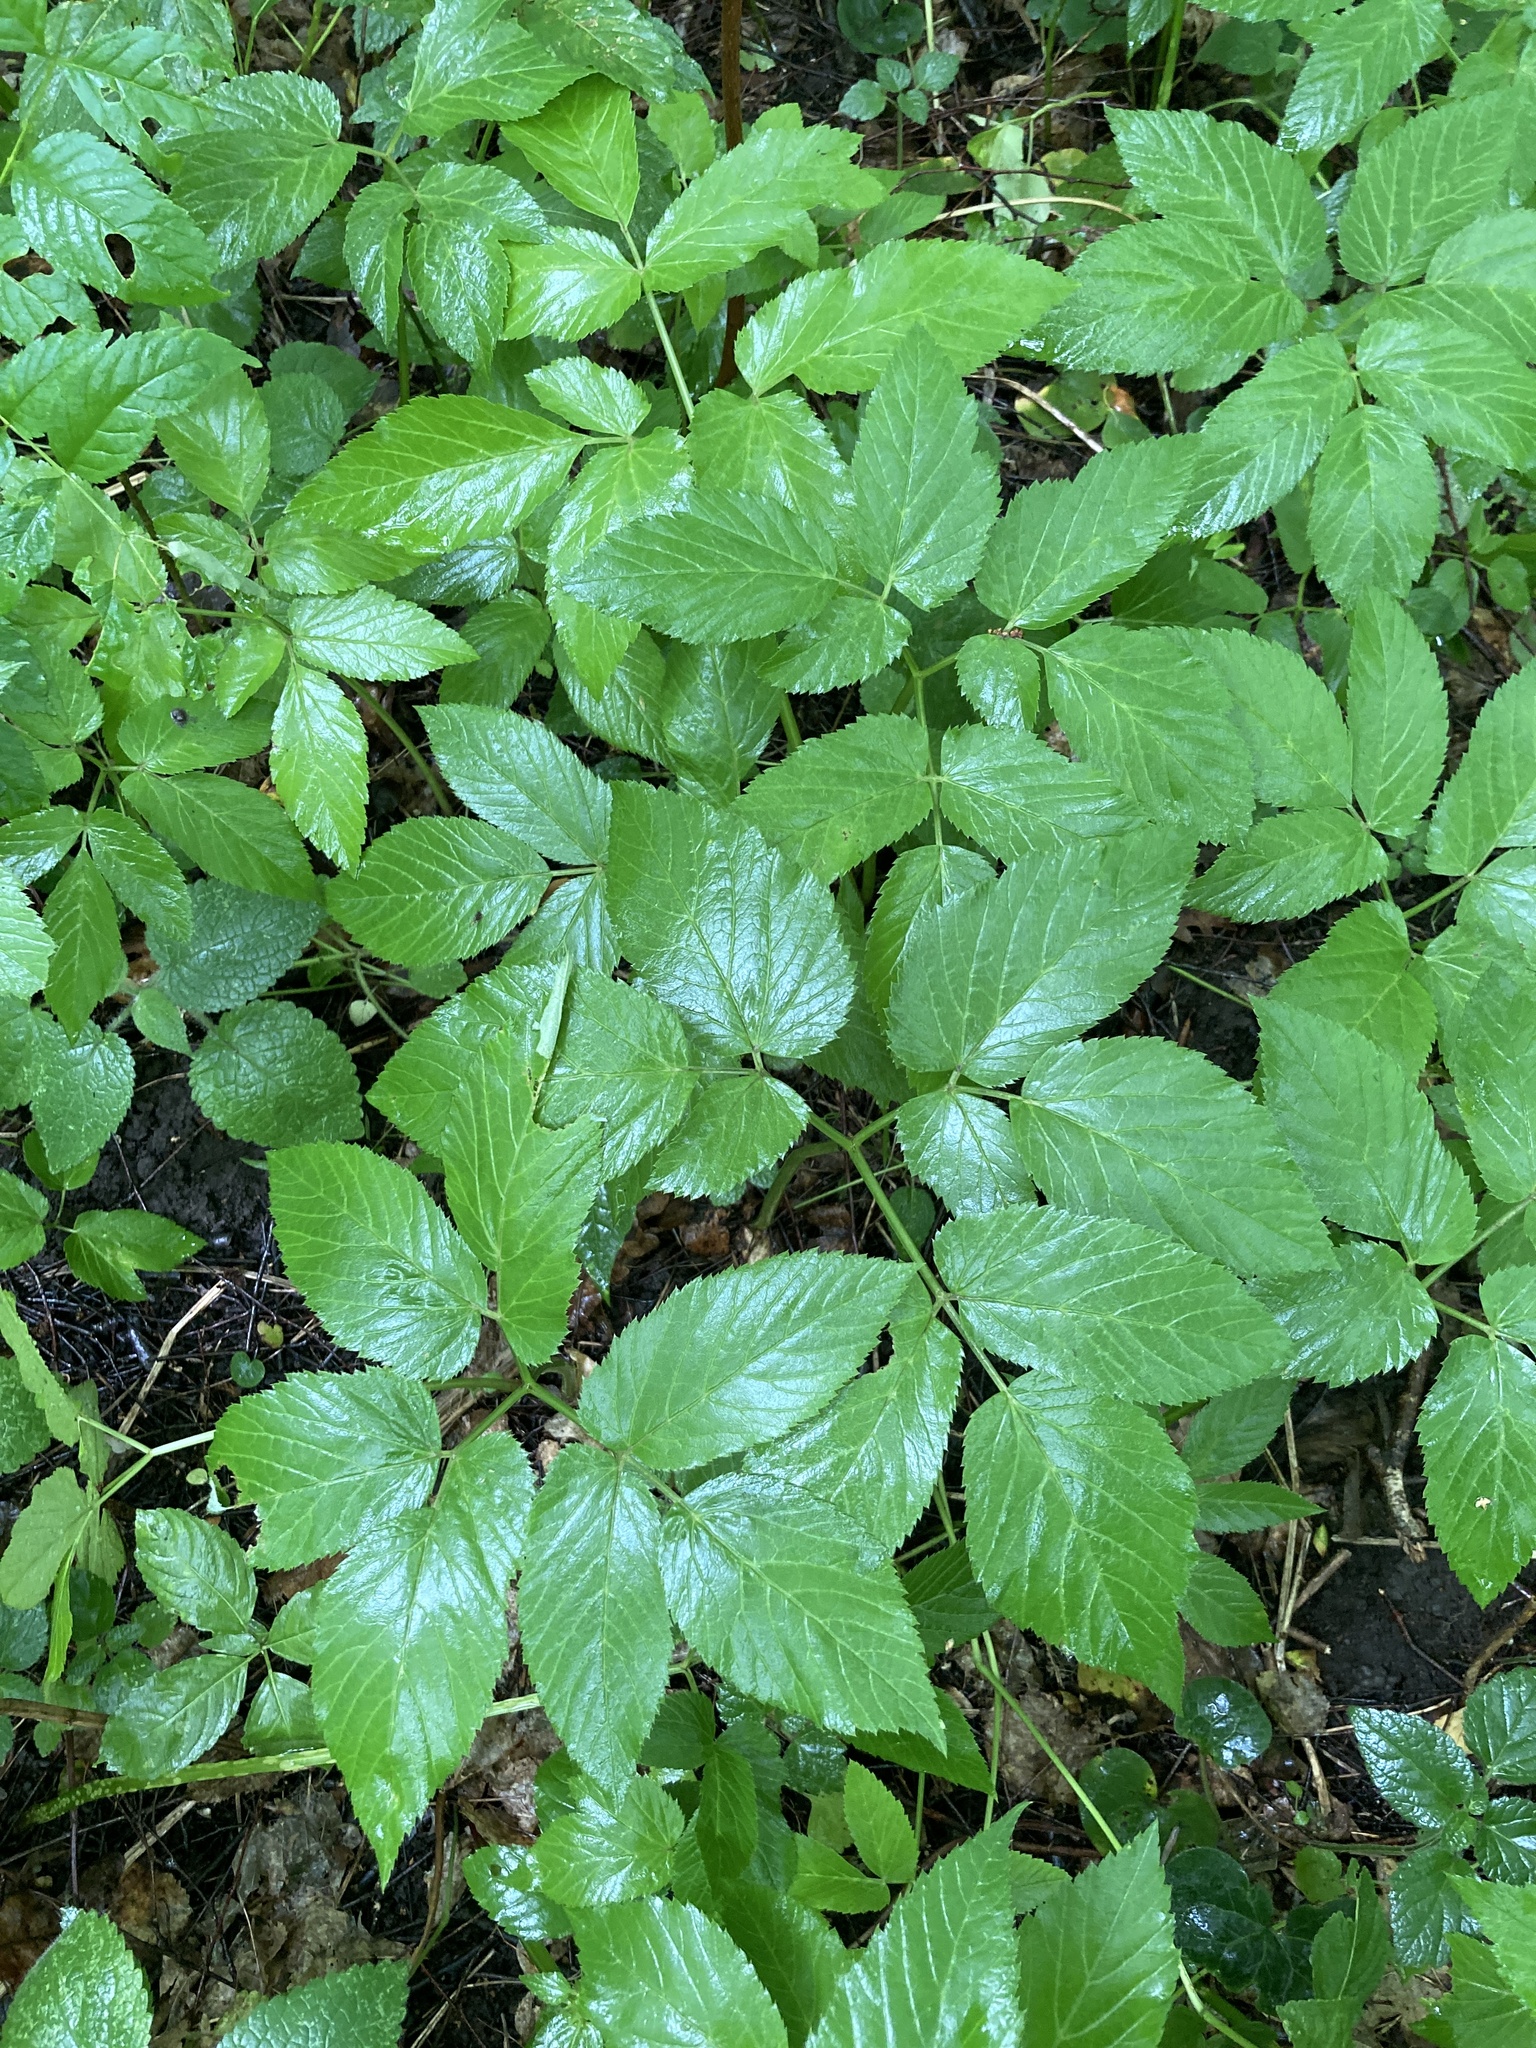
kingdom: Plantae
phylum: Tracheophyta
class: Magnoliopsida
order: Apiales
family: Apiaceae
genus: Aegopodium
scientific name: Aegopodium podagraria
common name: Ground-elder
